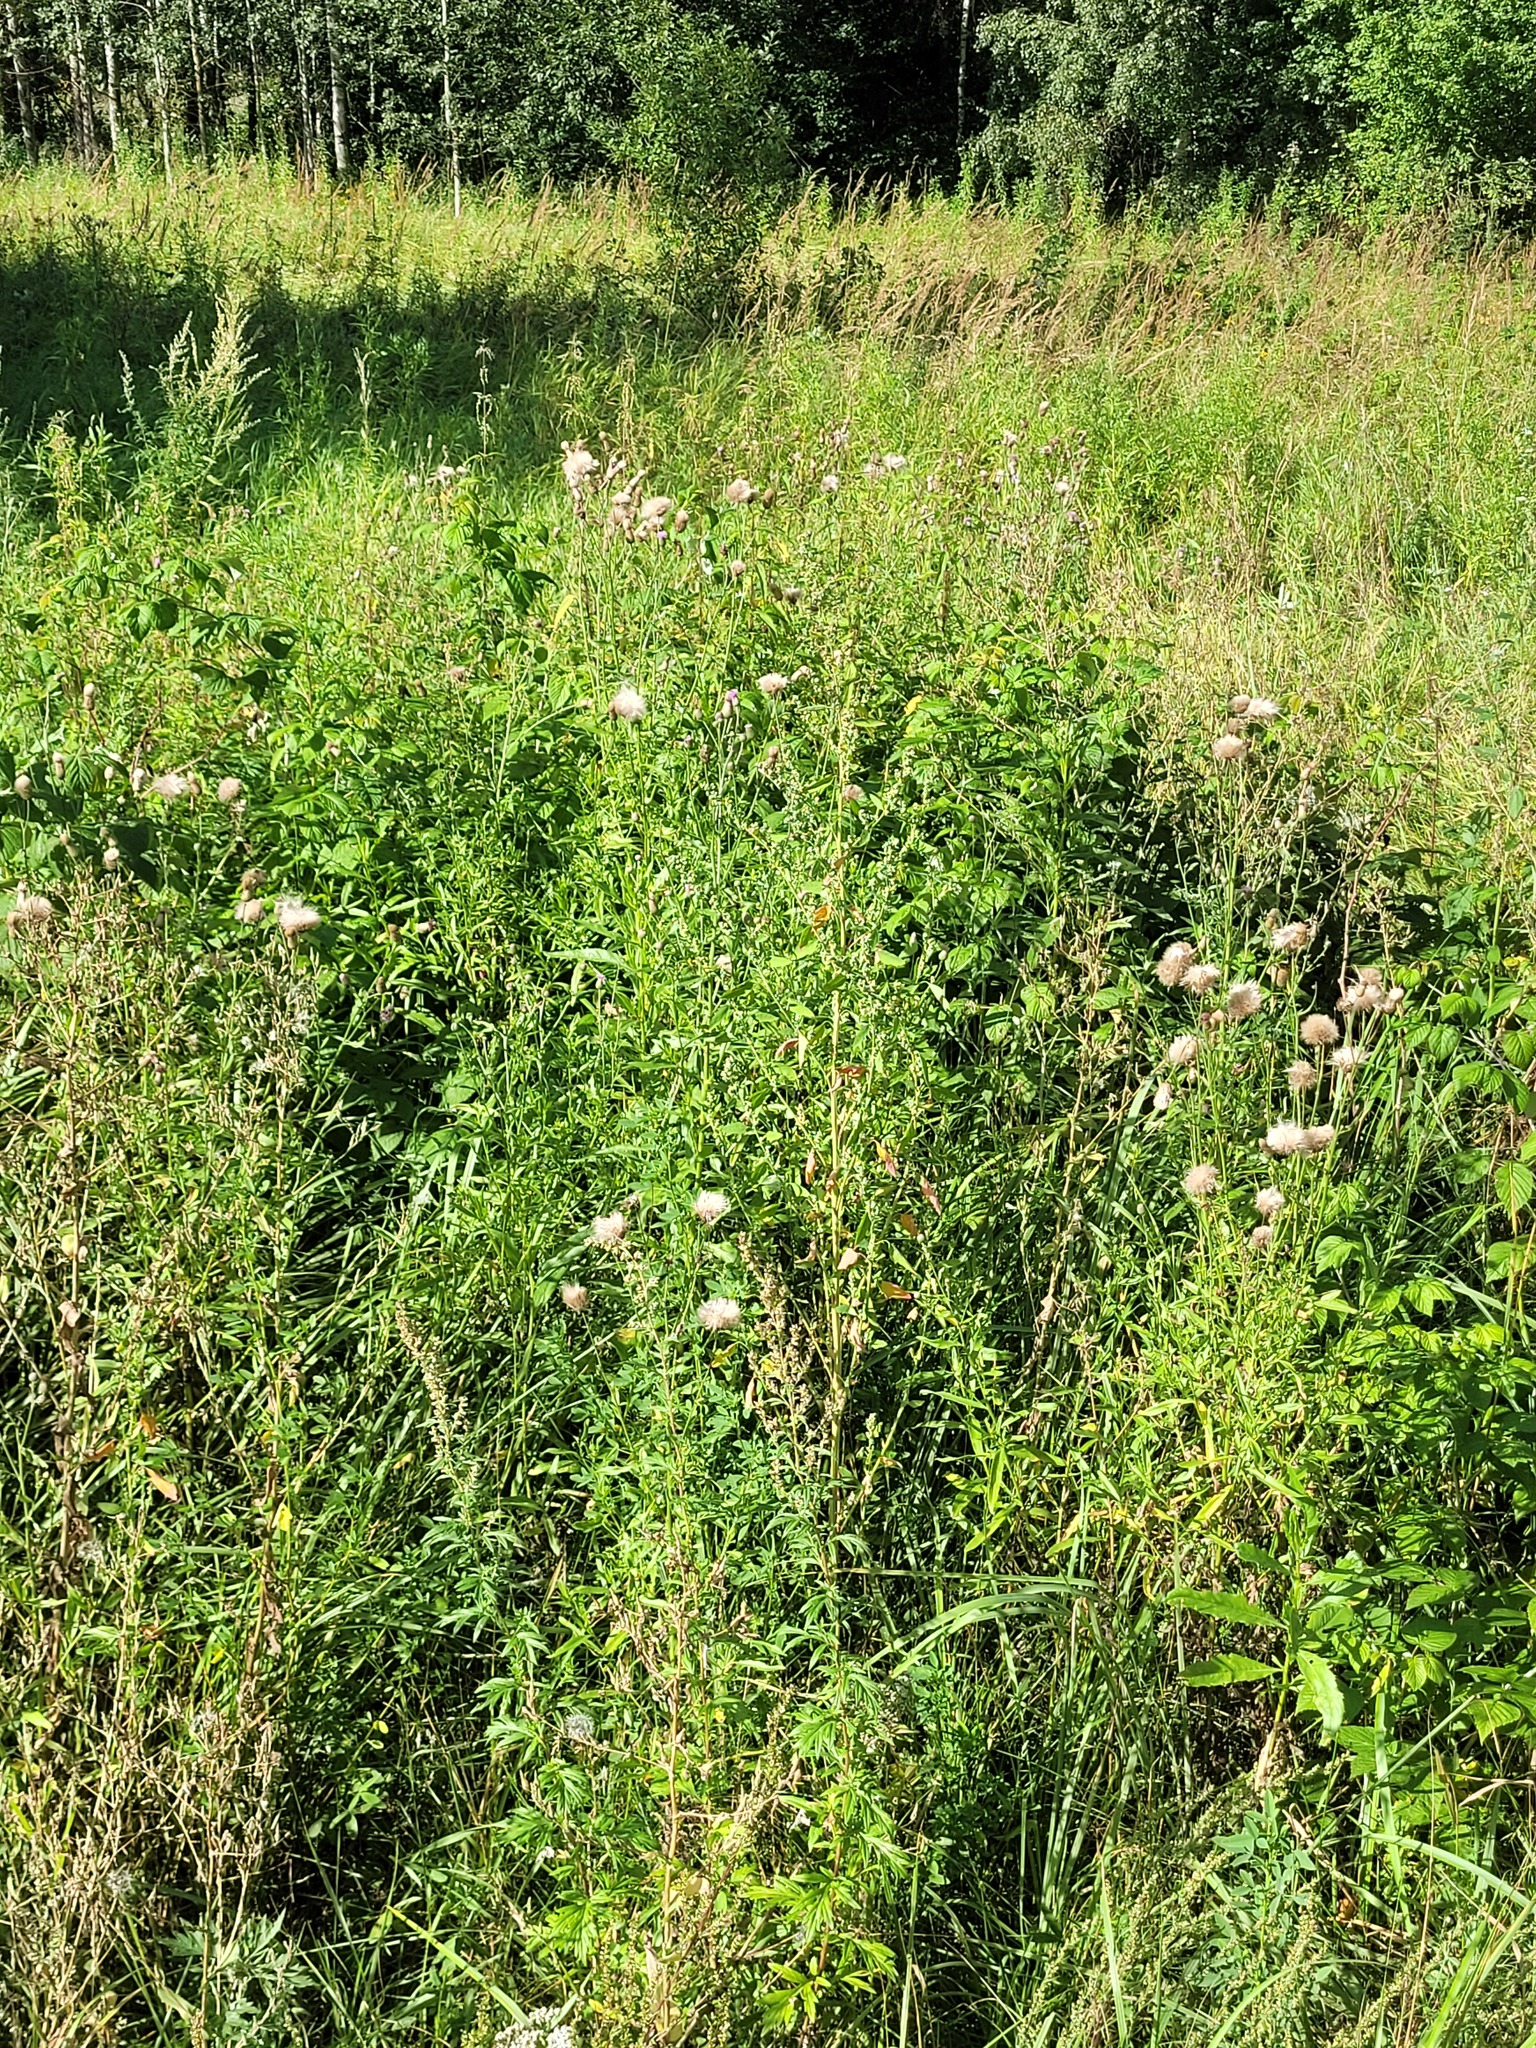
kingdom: Plantae
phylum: Tracheophyta
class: Magnoliopsida
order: Caryophyllales
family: Amaranthaceae
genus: Chenopodium
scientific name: Chenopodium album
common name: Fat-hen
